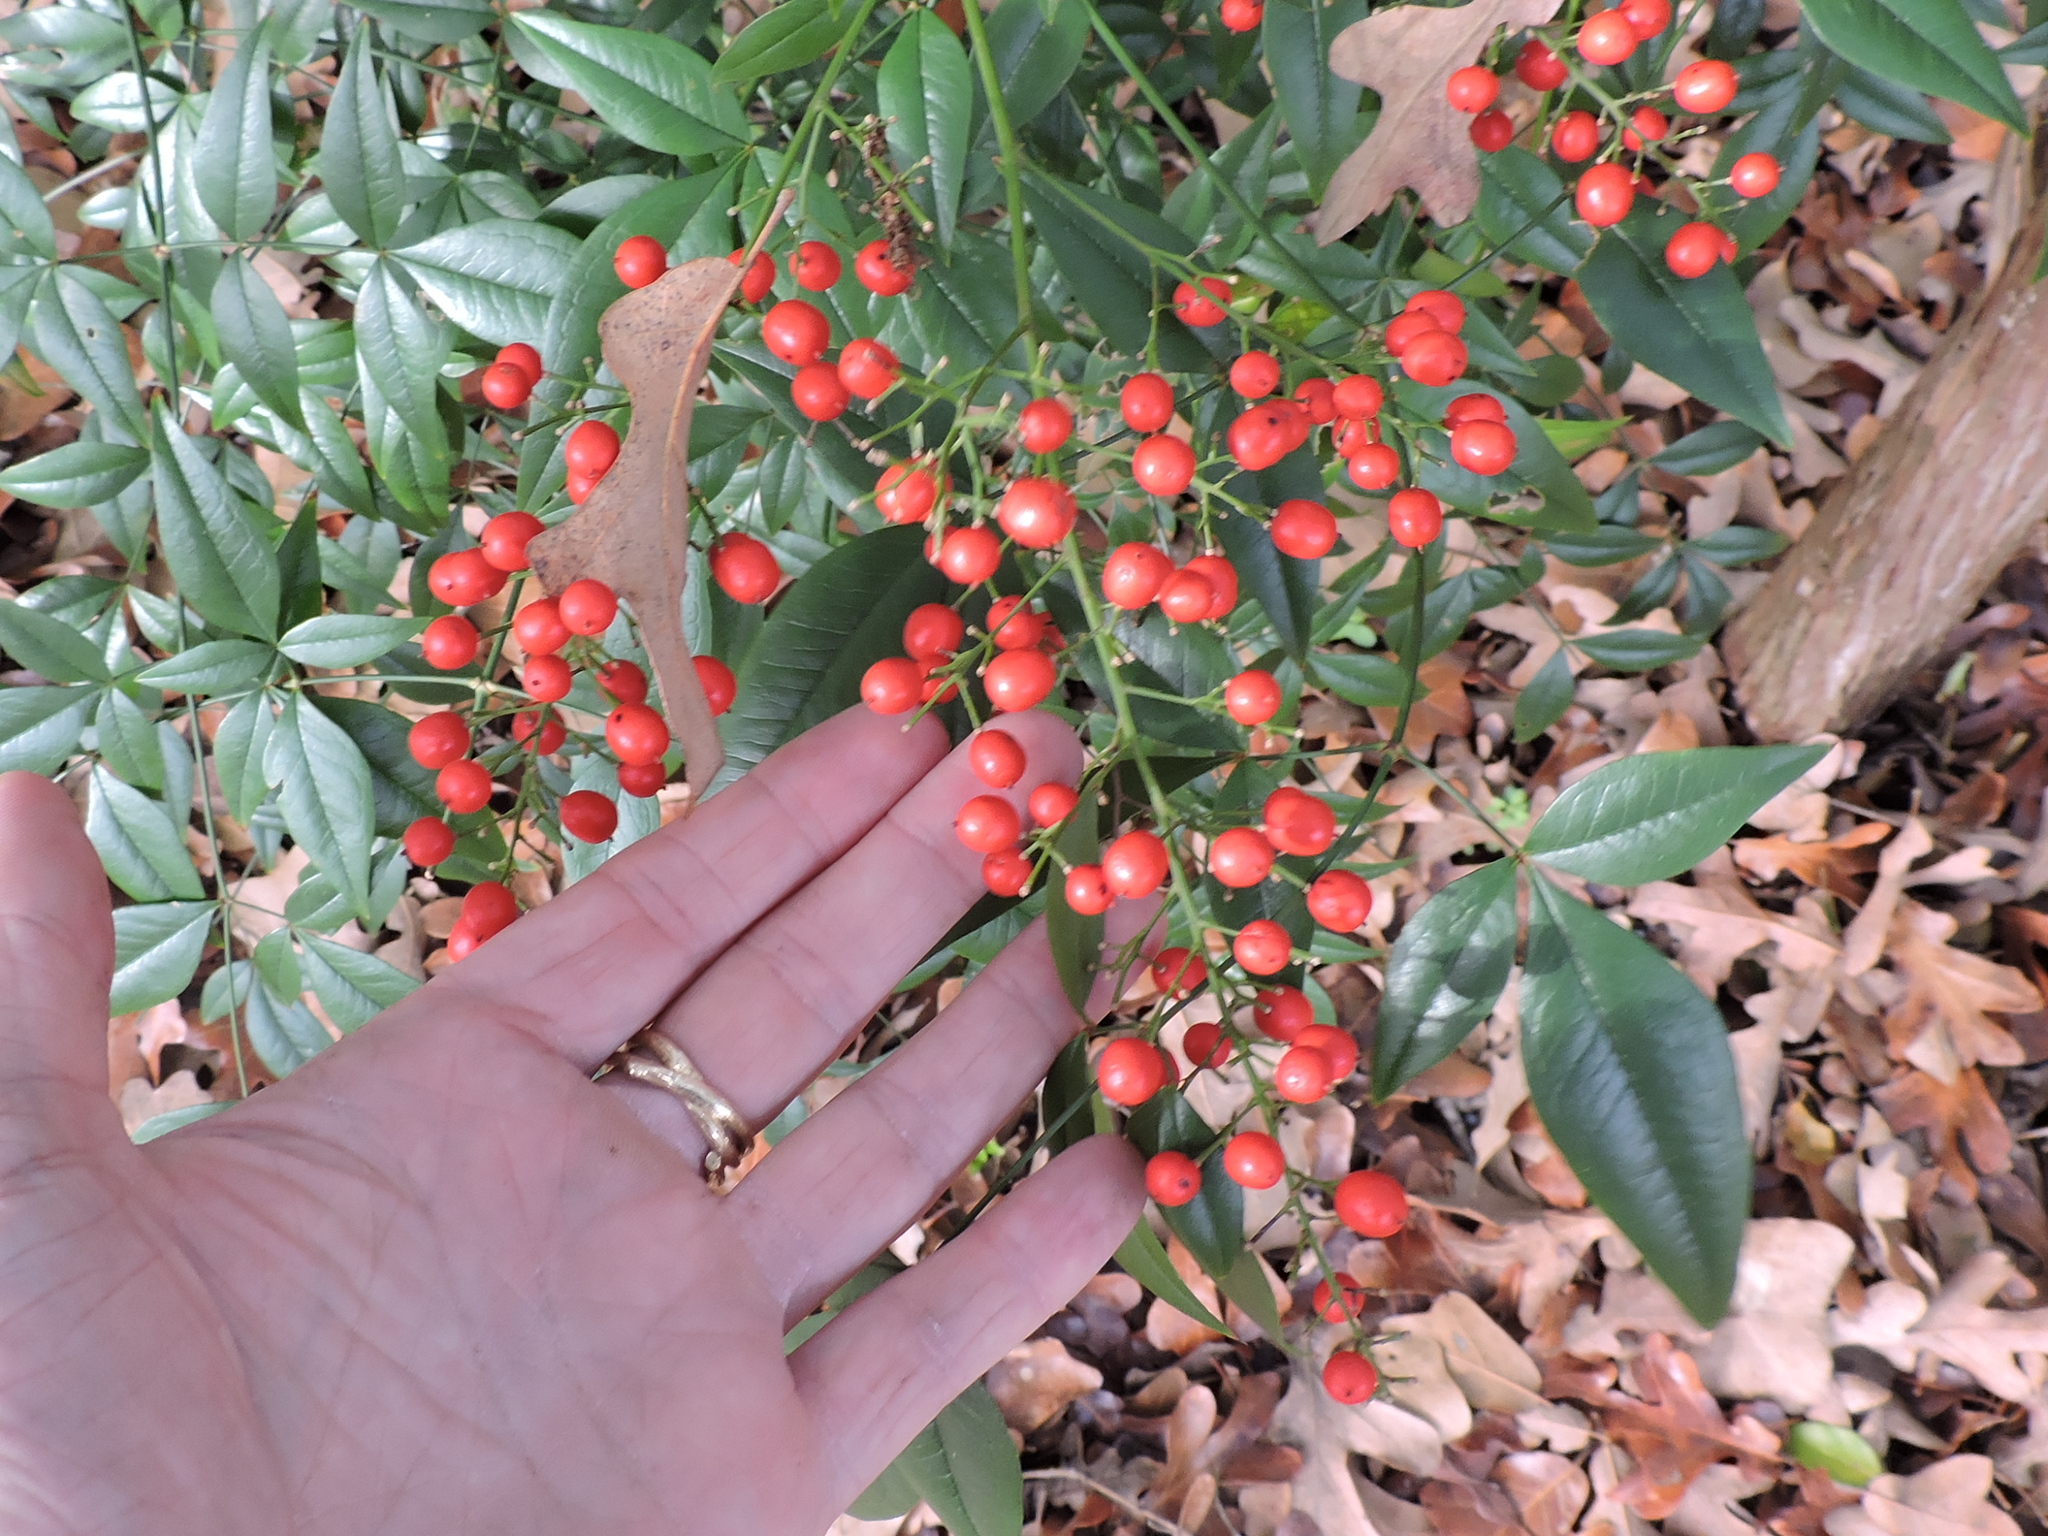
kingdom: Plantae
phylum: Tracheophyta
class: Magnoliopsida
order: Ranunculales
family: Berberidaceae
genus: Nandina
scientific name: Nandina domestica
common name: Sacred bamboo
